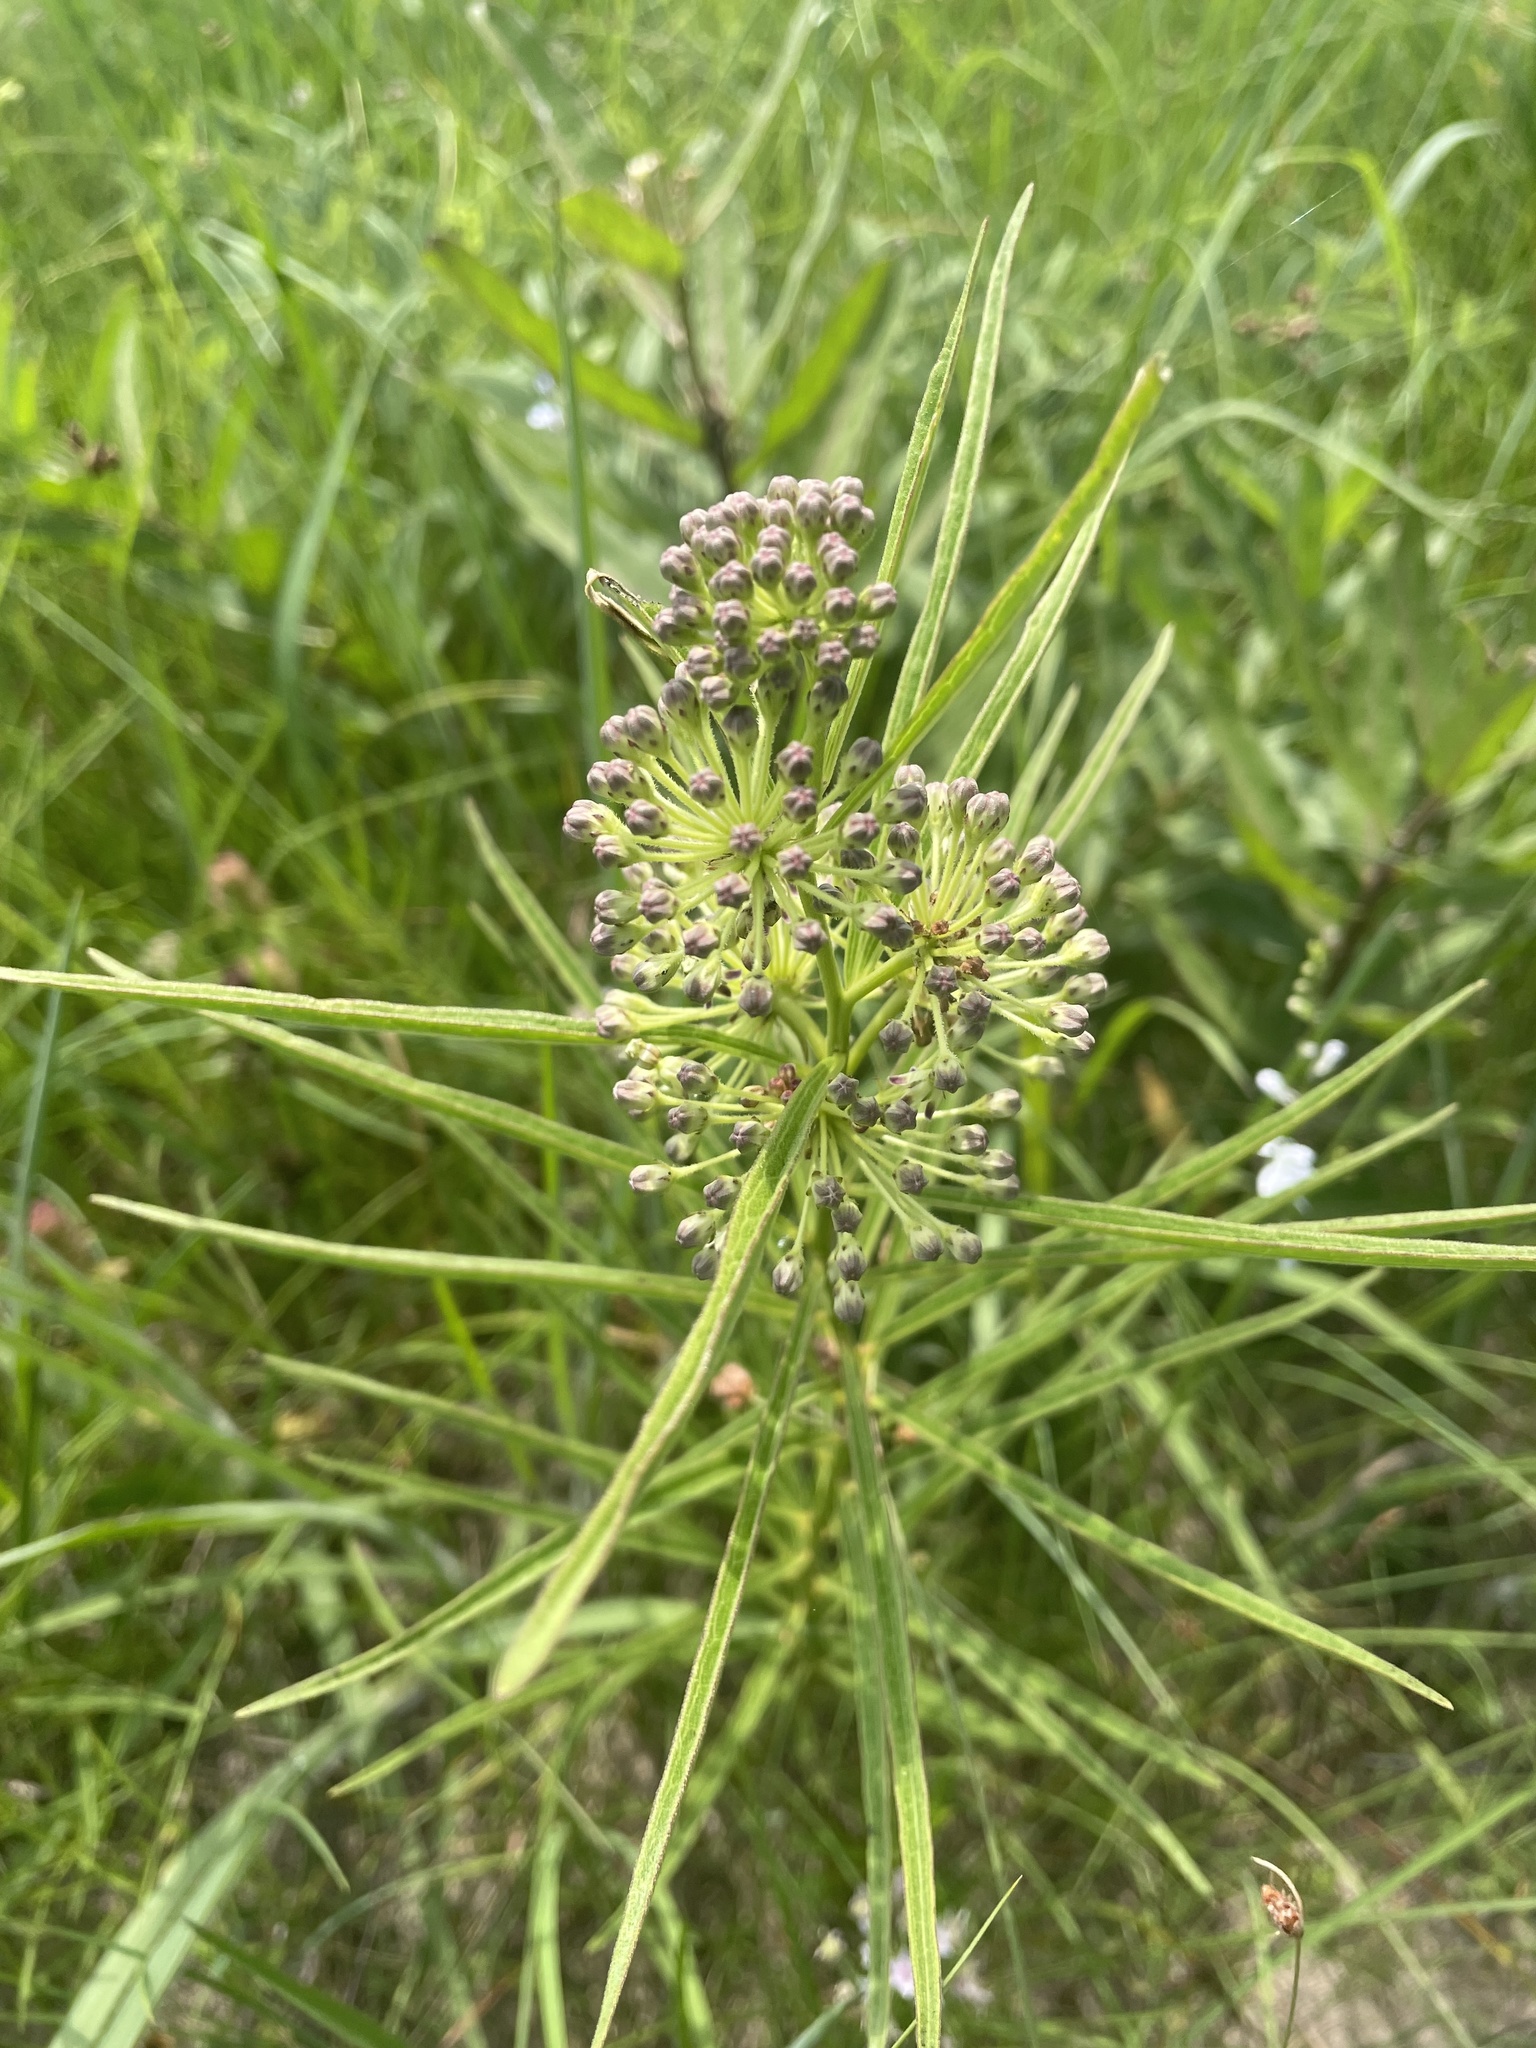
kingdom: Plantae
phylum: Tracheophyta
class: Magnoliopsida
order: Gentianales
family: Apocynaceae
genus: Asclepias
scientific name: Asclepias hirtella
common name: Prairie milkweed
